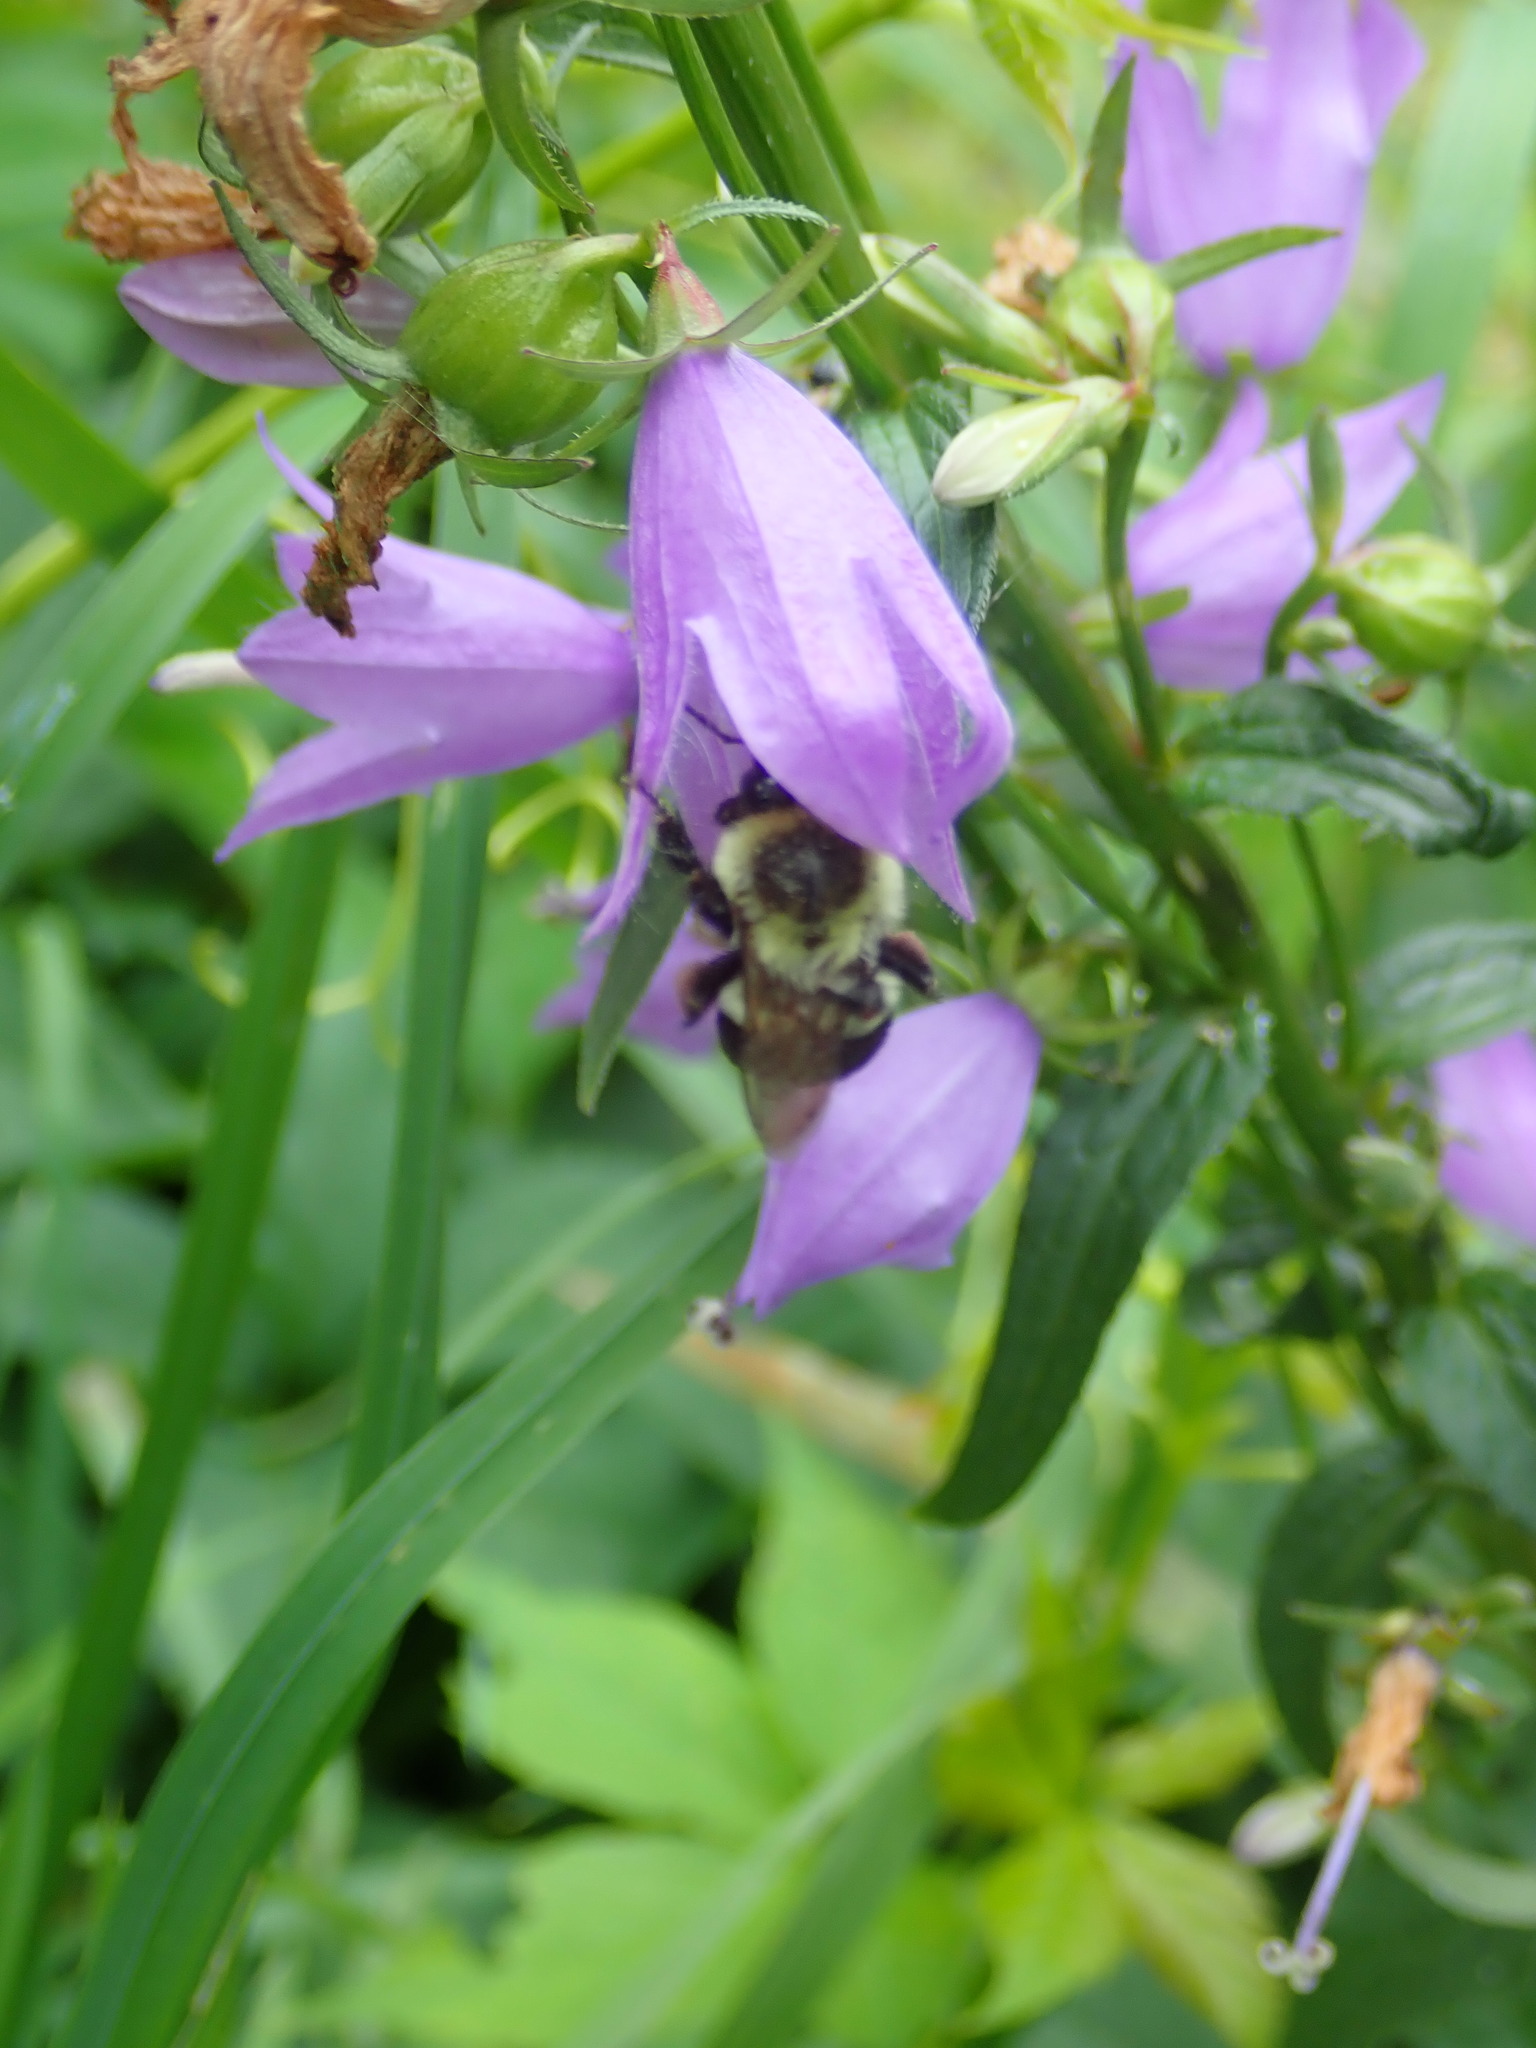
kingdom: Animalia
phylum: Arthropoda
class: Insecta
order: Hymenoptera
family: Apidae
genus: Bombus
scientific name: Bombus impatiens
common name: Common eastern bumble bee
